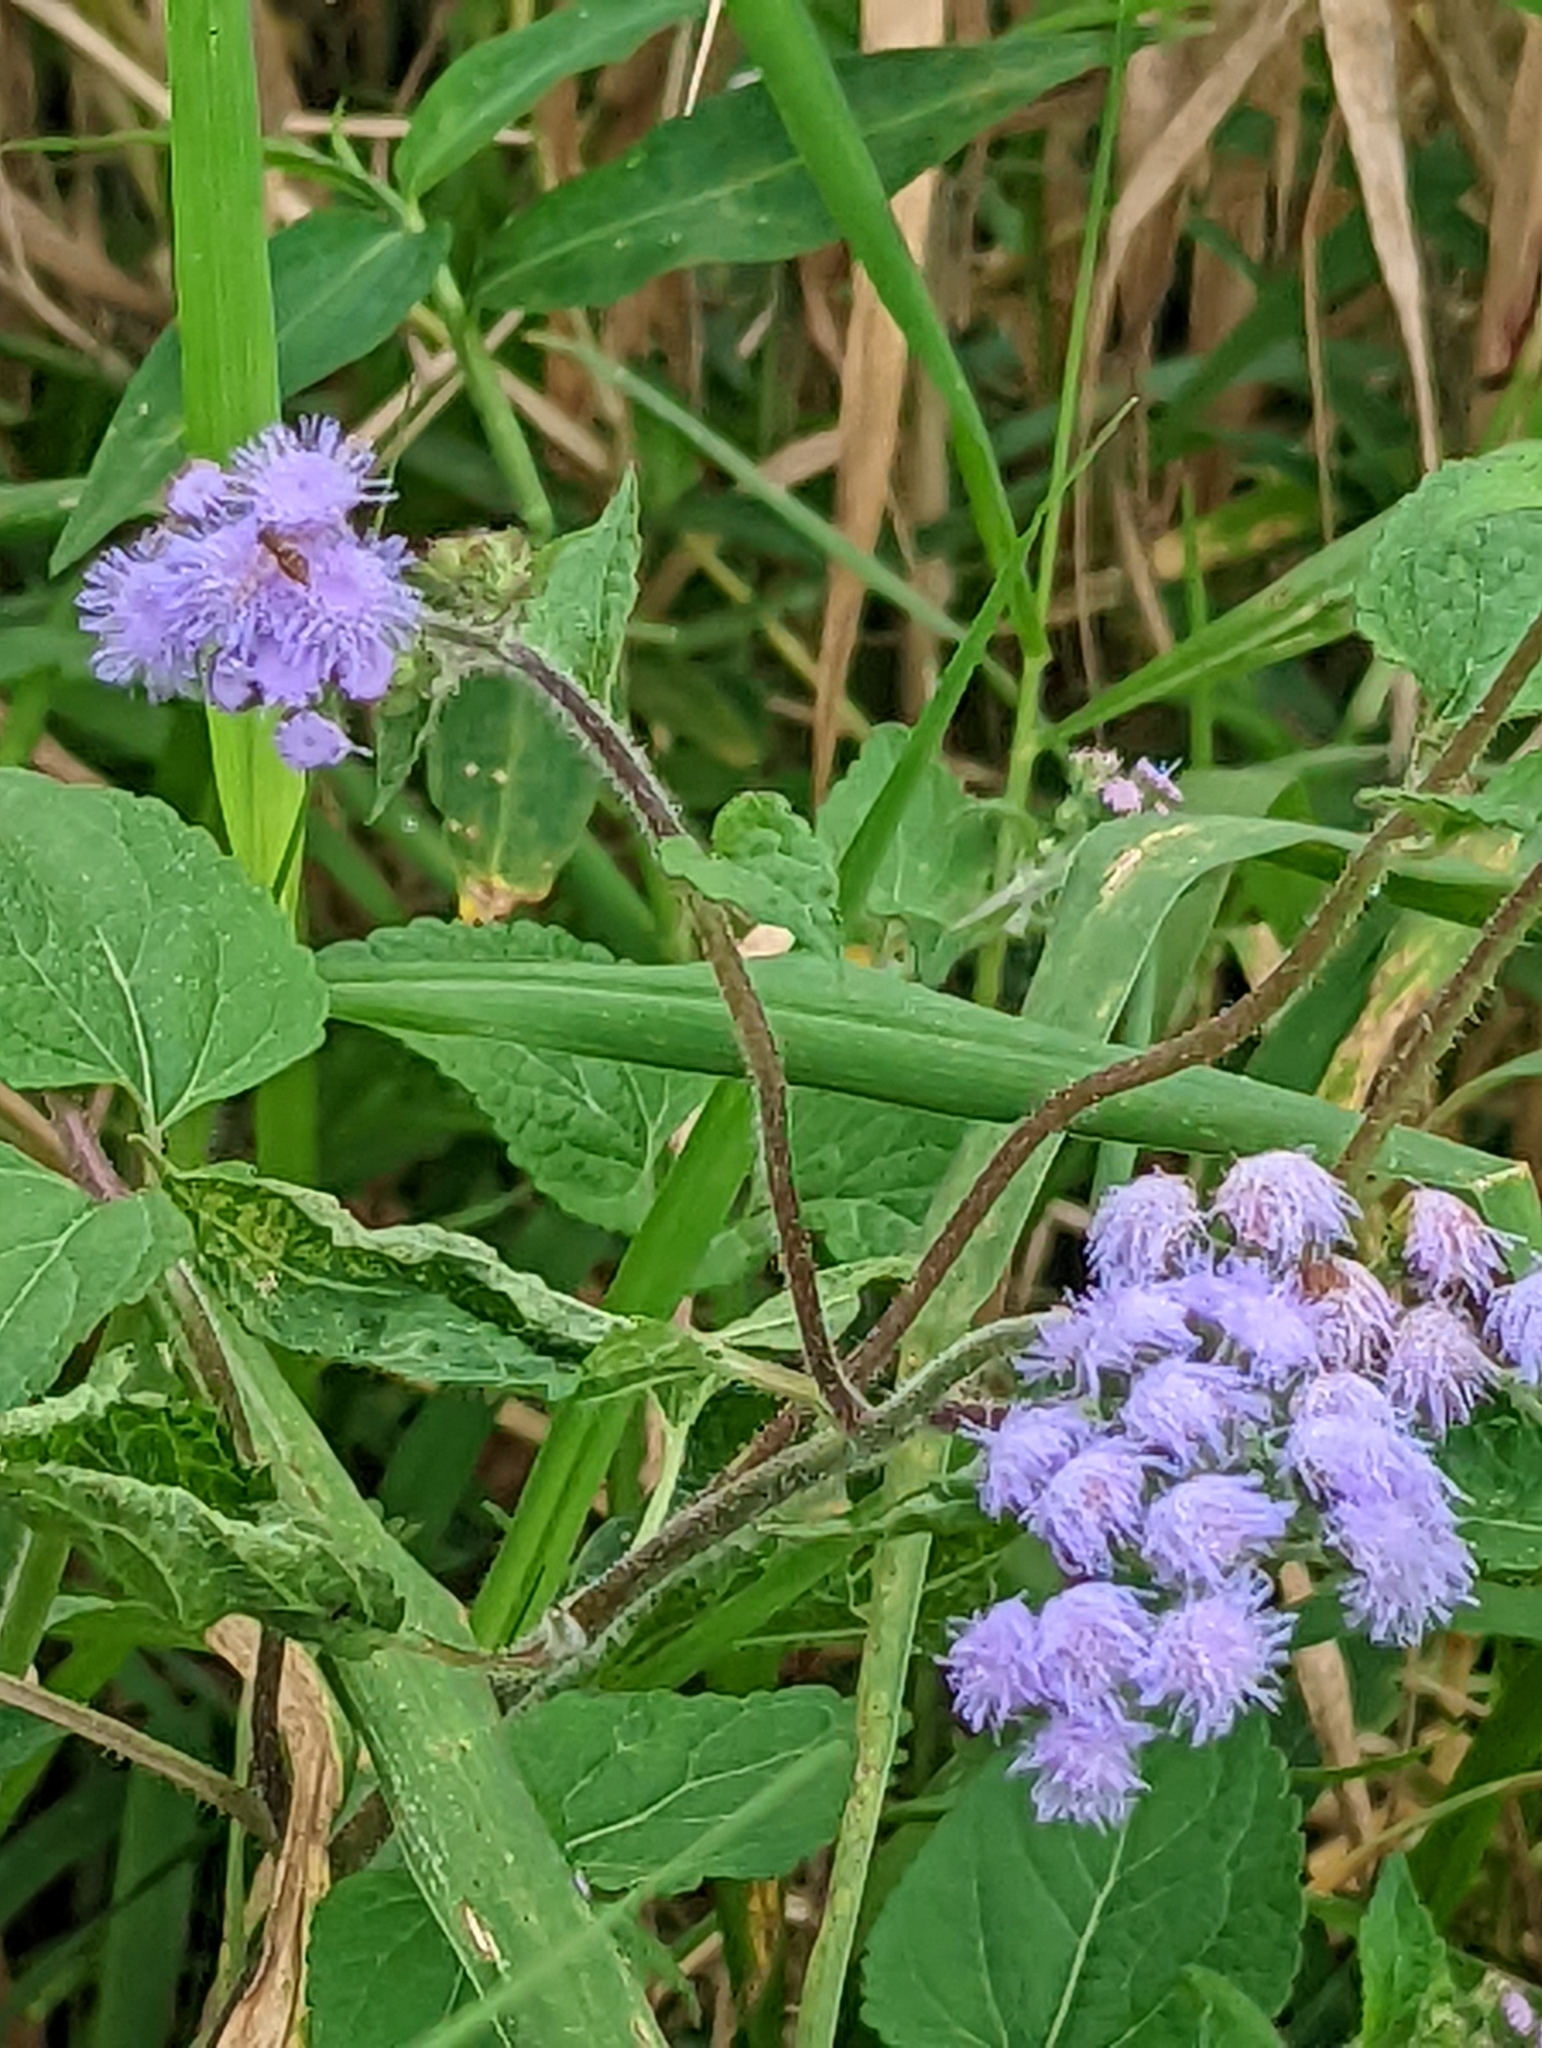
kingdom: Plantae
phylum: Tracheophyta
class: Magnoliopsida
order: Asterales
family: Asteraceae
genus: Ageratum
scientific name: Ageratum houstonianum
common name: Bluemink
